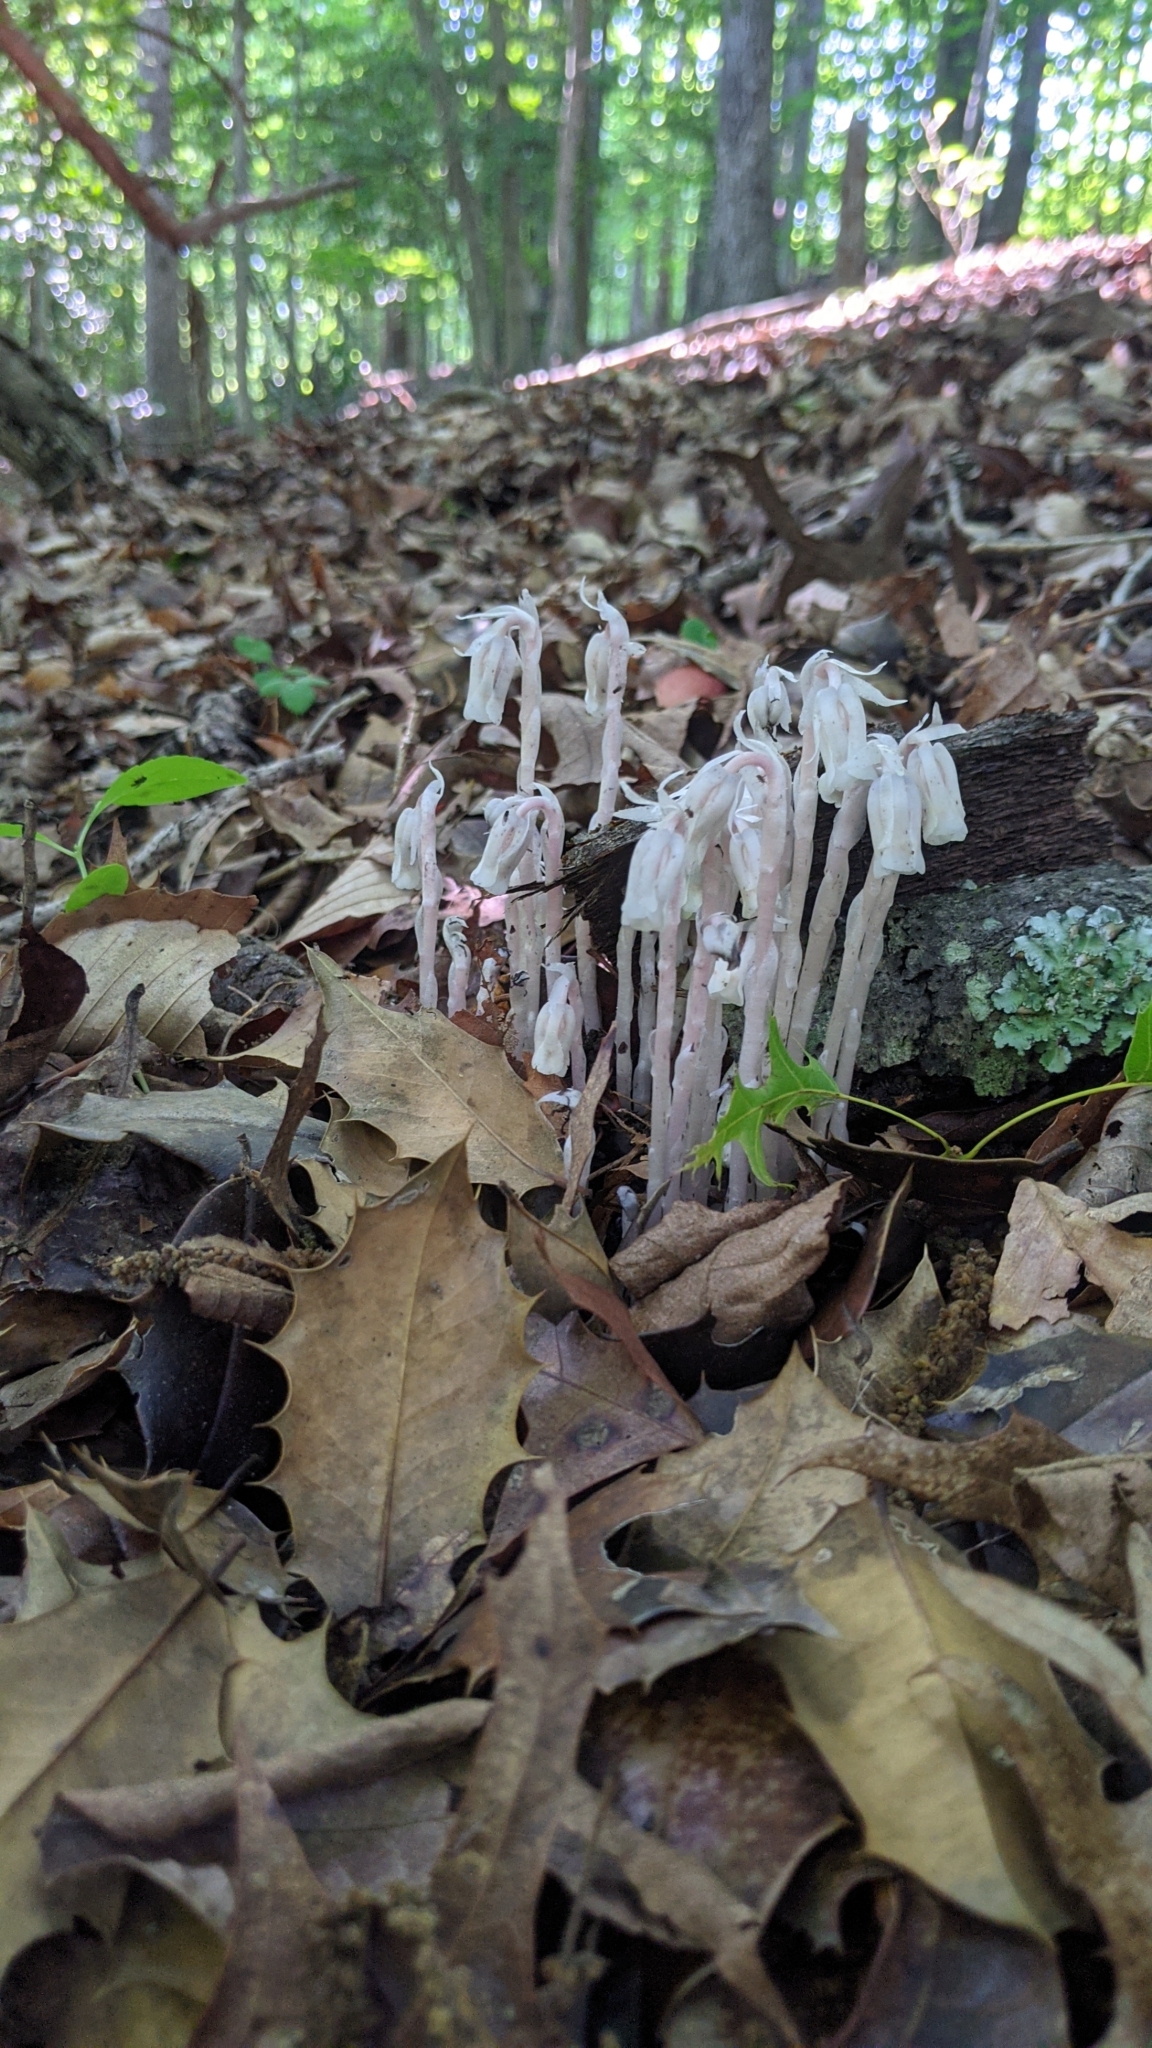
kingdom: Plantae
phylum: Tracheophyta
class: Magnoliopsida
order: Ericales
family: Ericaceae
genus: Monotropa
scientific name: Monotropa uniflora
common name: Convulsion root
